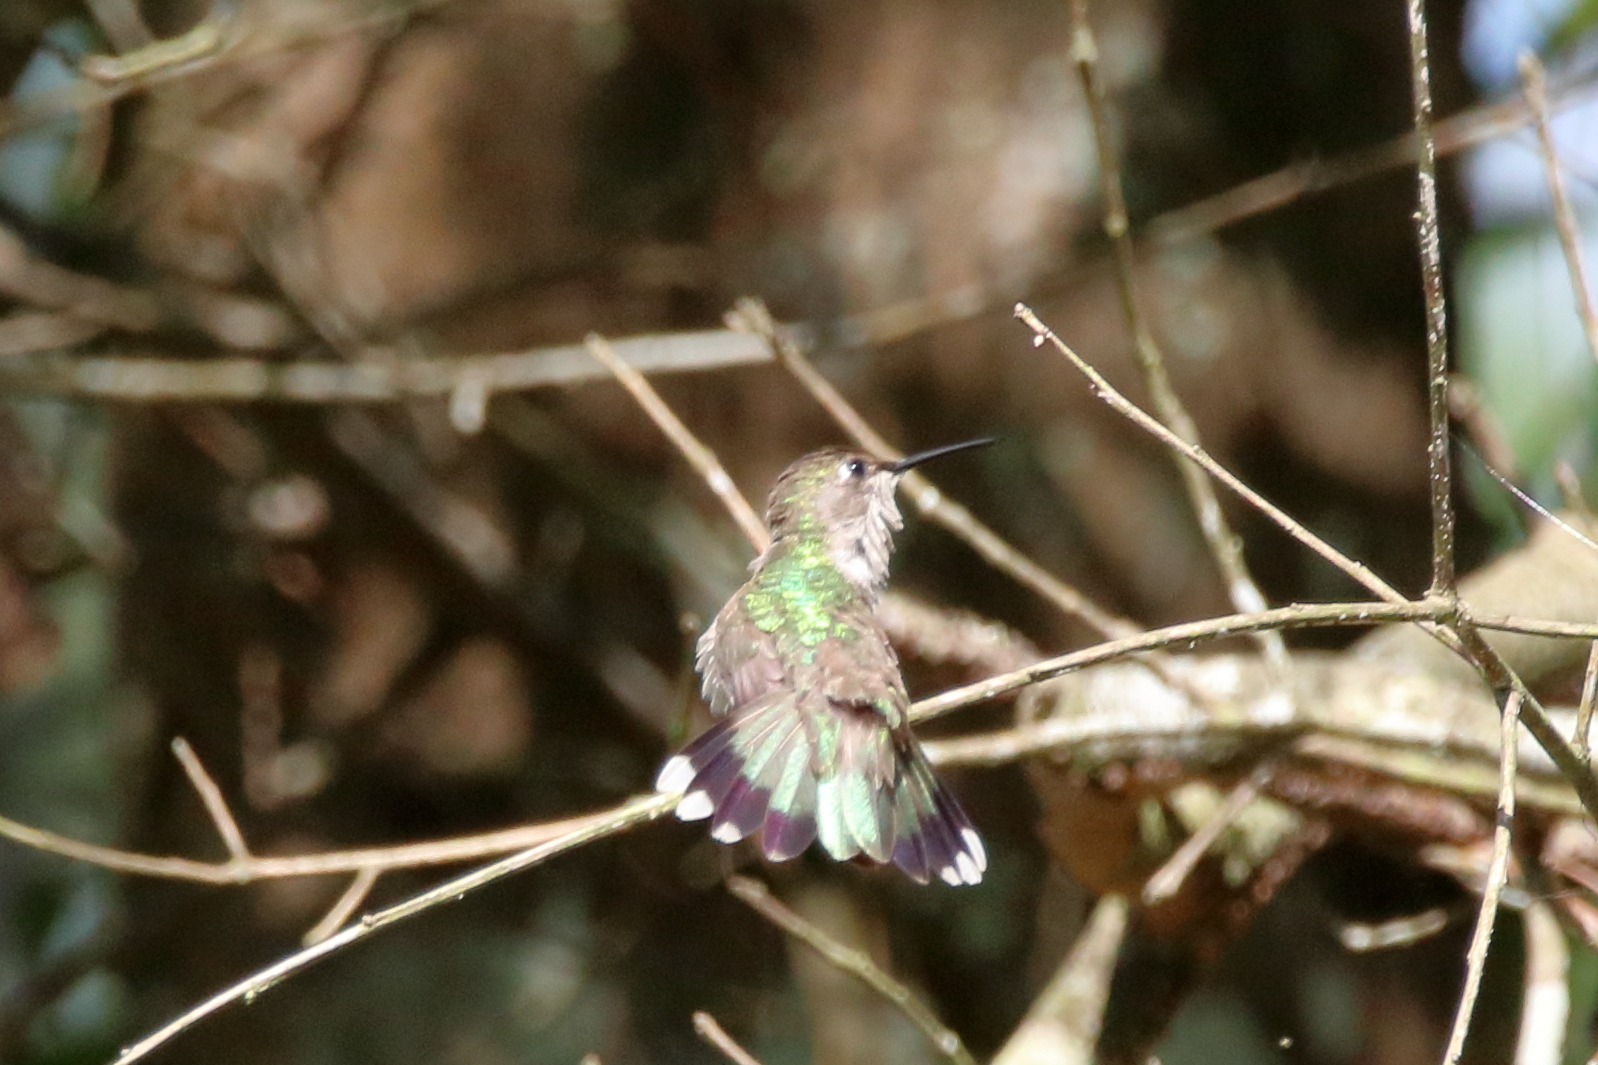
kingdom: Animalia
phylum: Chordata
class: Aves
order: Apodiformes
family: Trochilidae
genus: Archilochus
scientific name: Archilochus colubris
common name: Ruby-throated hummingbird
